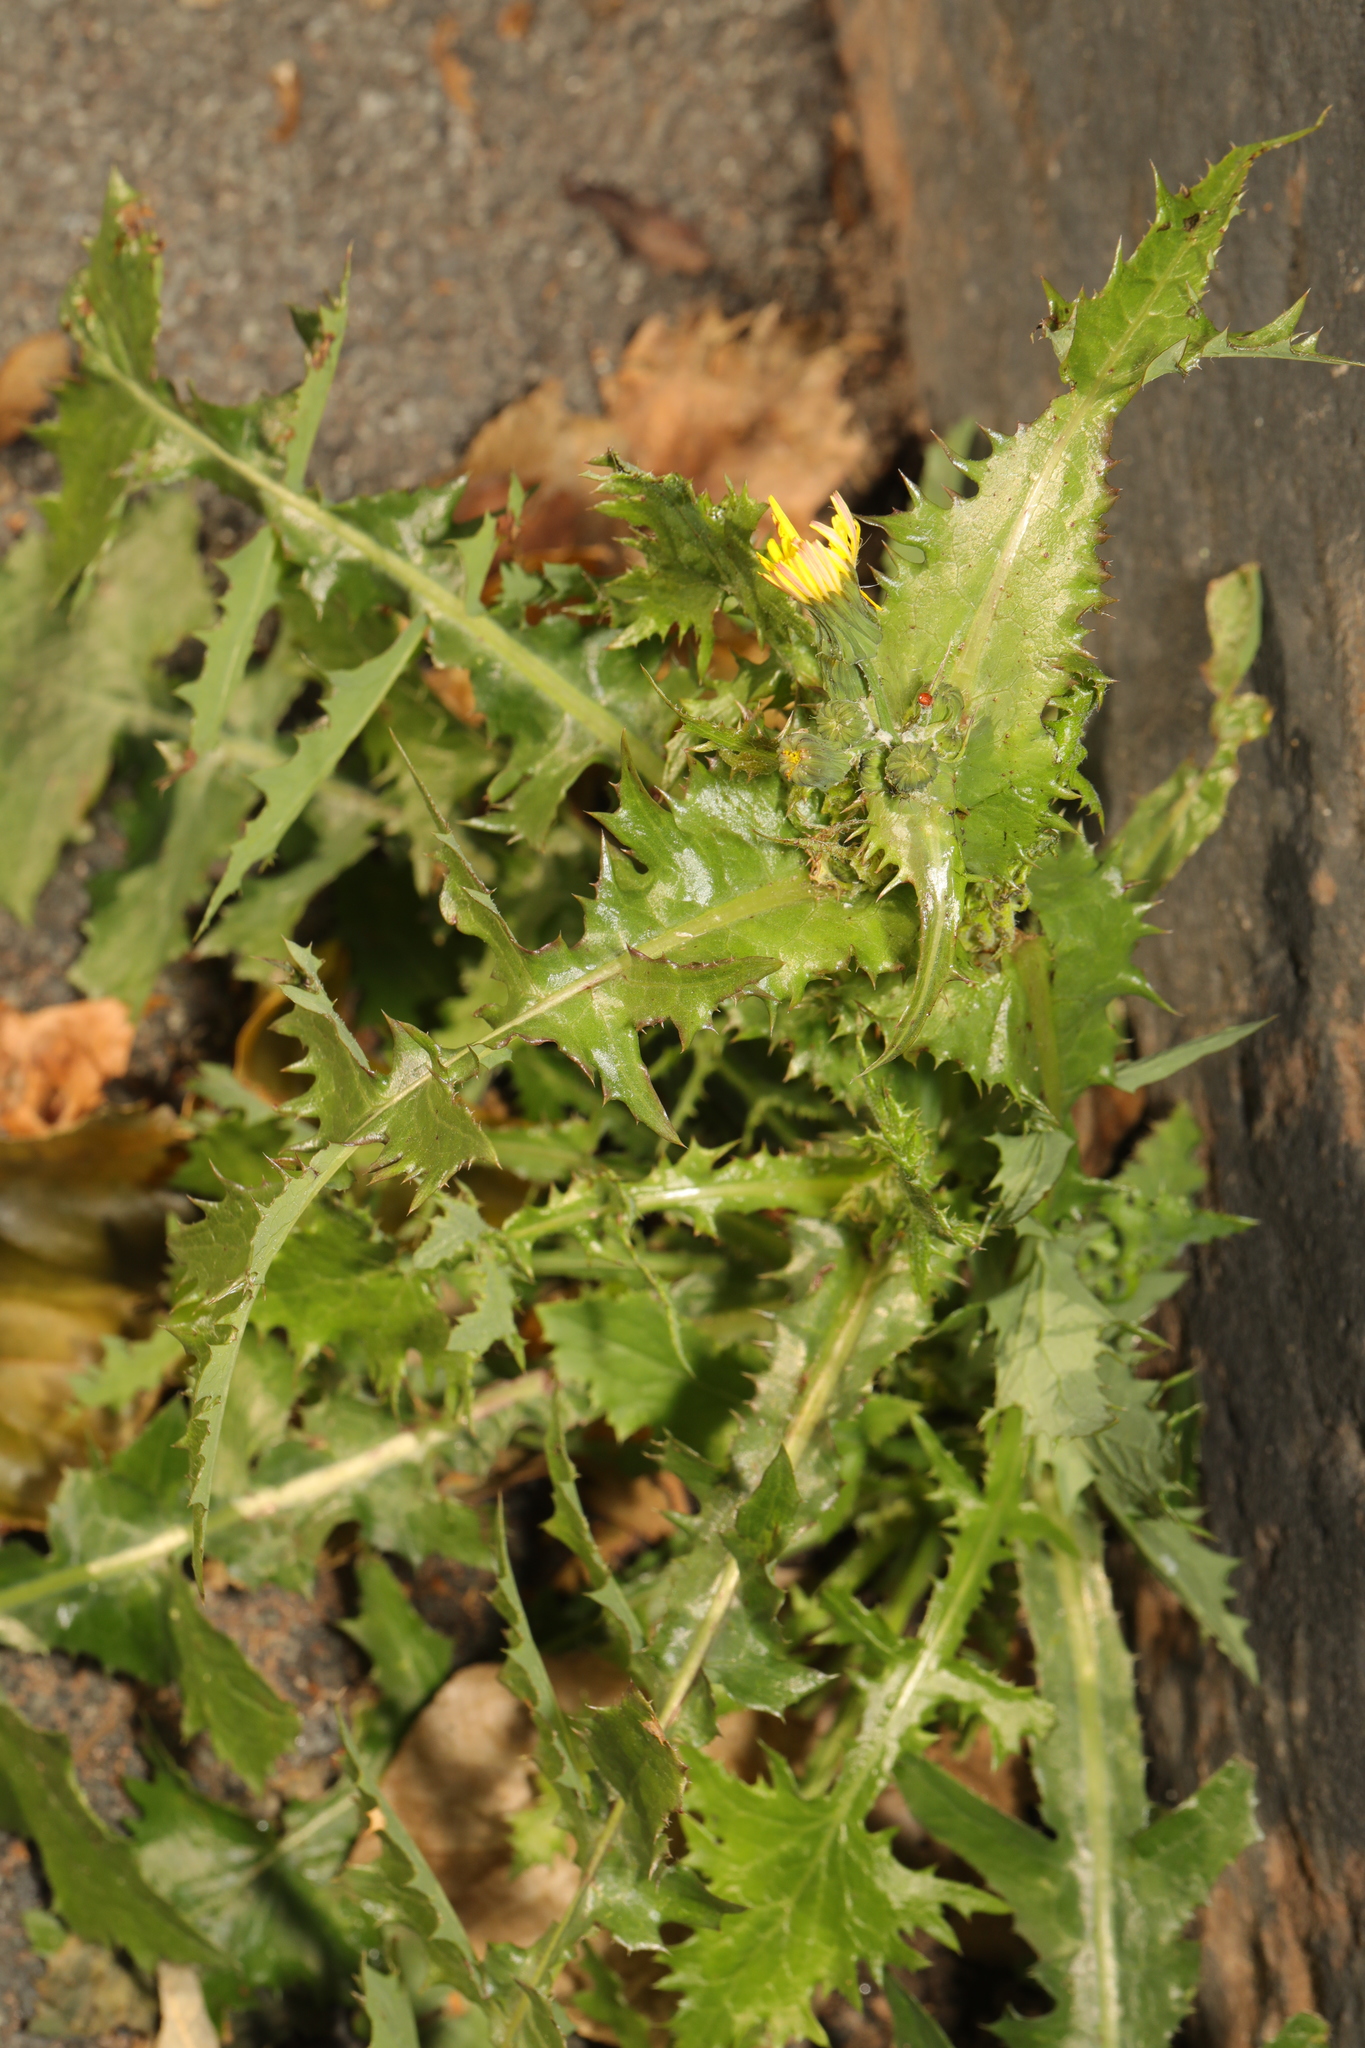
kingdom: Plantae
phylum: Tracheophyta
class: Magnoliopsida
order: Asterales
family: Asteraceae
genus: Sonchus
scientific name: Sonchus asper
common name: Prickly sow-thistle
